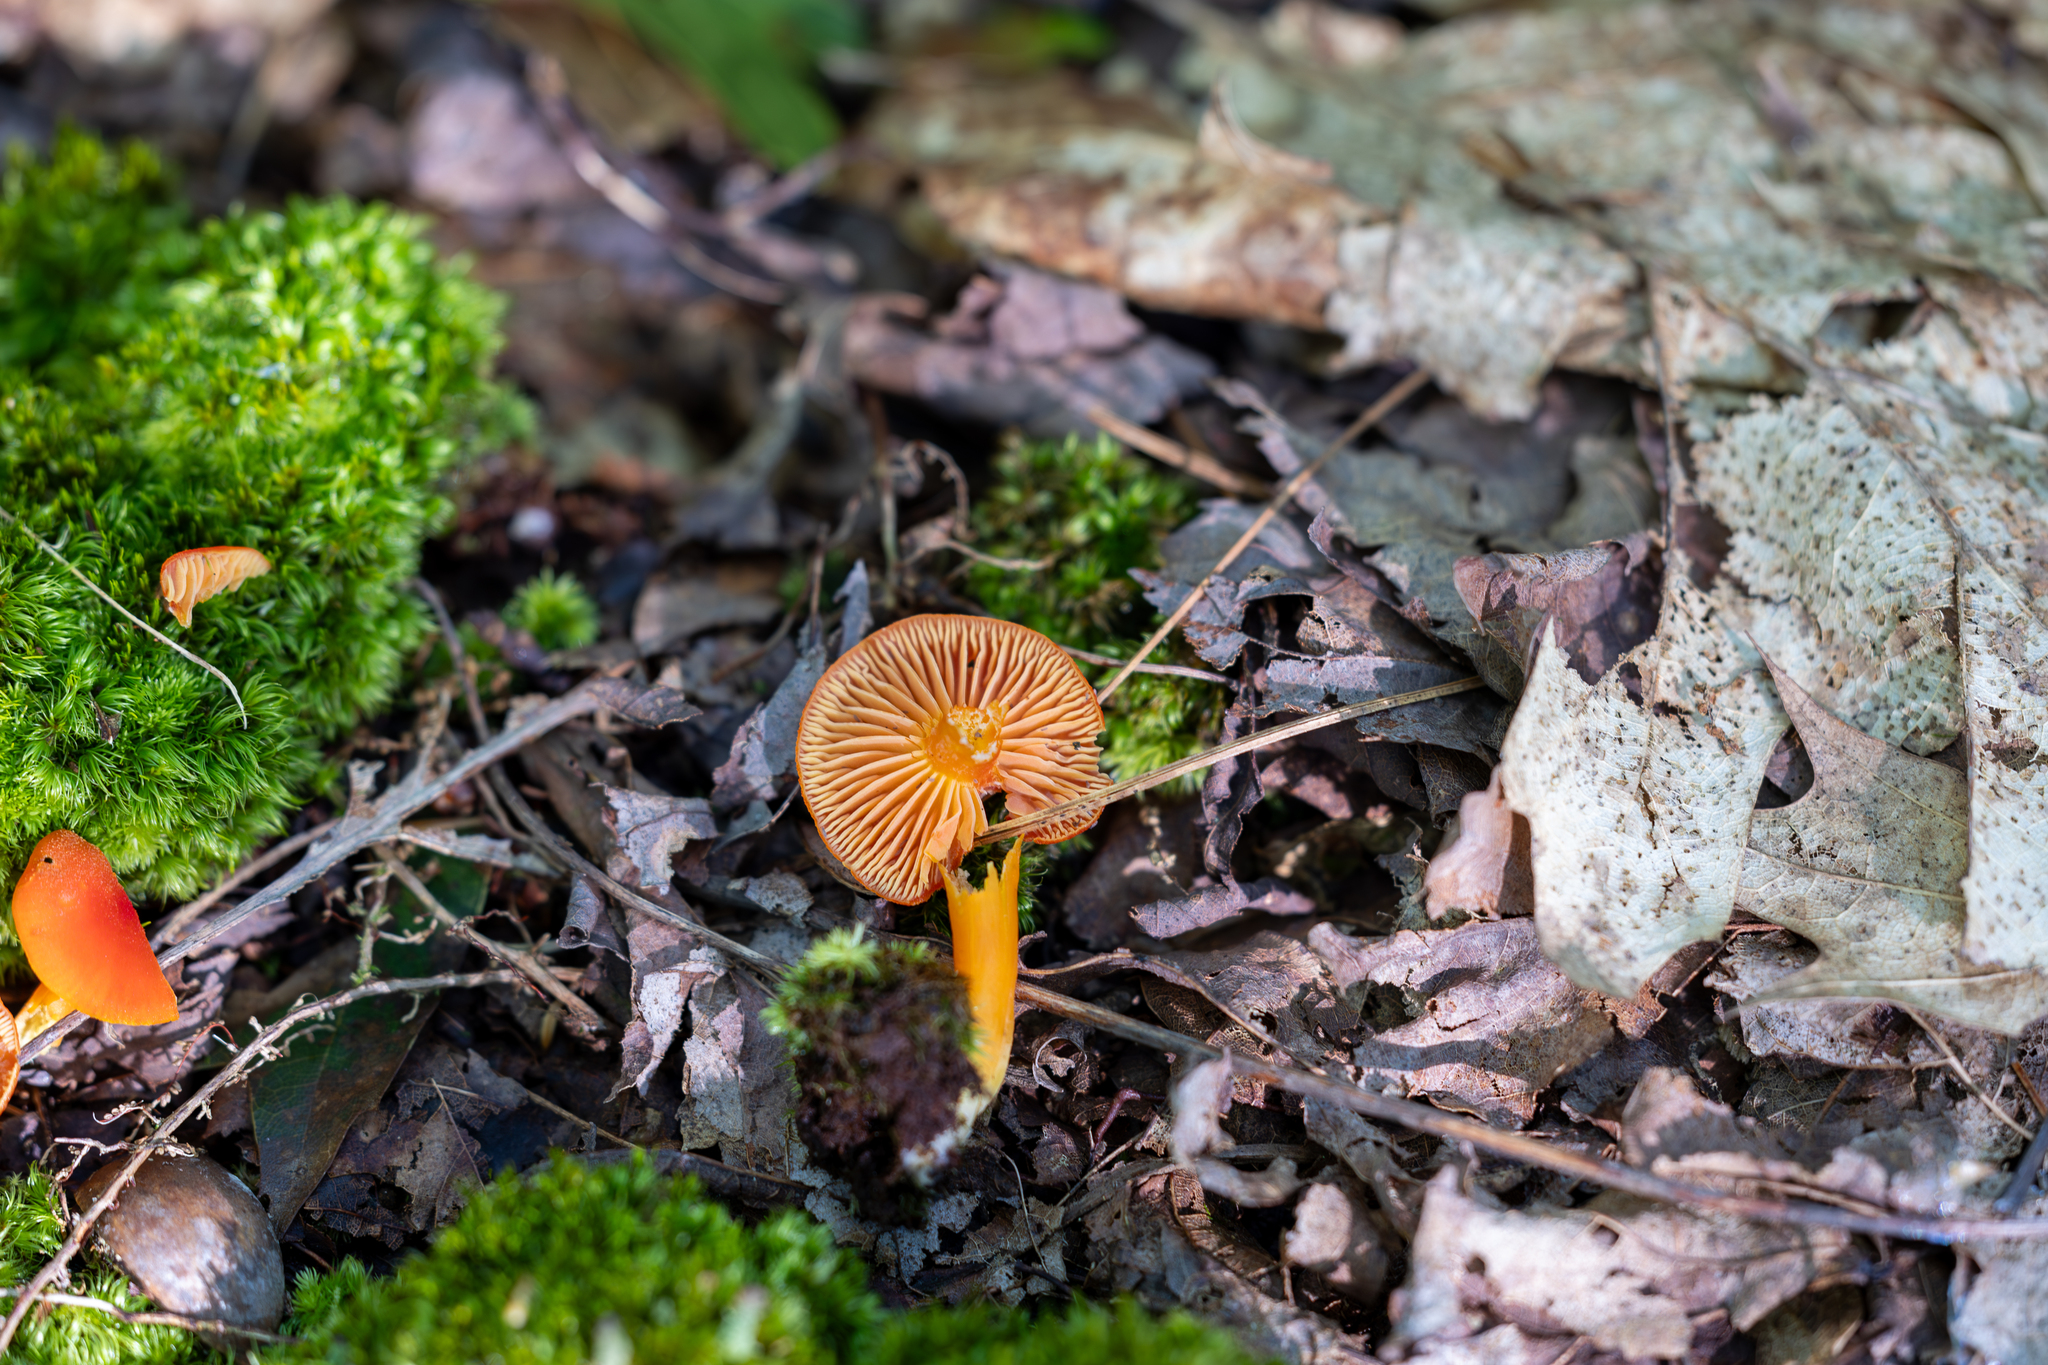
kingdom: Fungi
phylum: Basidiomycota
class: Agaricomycetes
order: Agaricales
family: Hygrophoraceae
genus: Hygrocybe
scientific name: Hygrocybe miniata
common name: Vermilion waxcap
